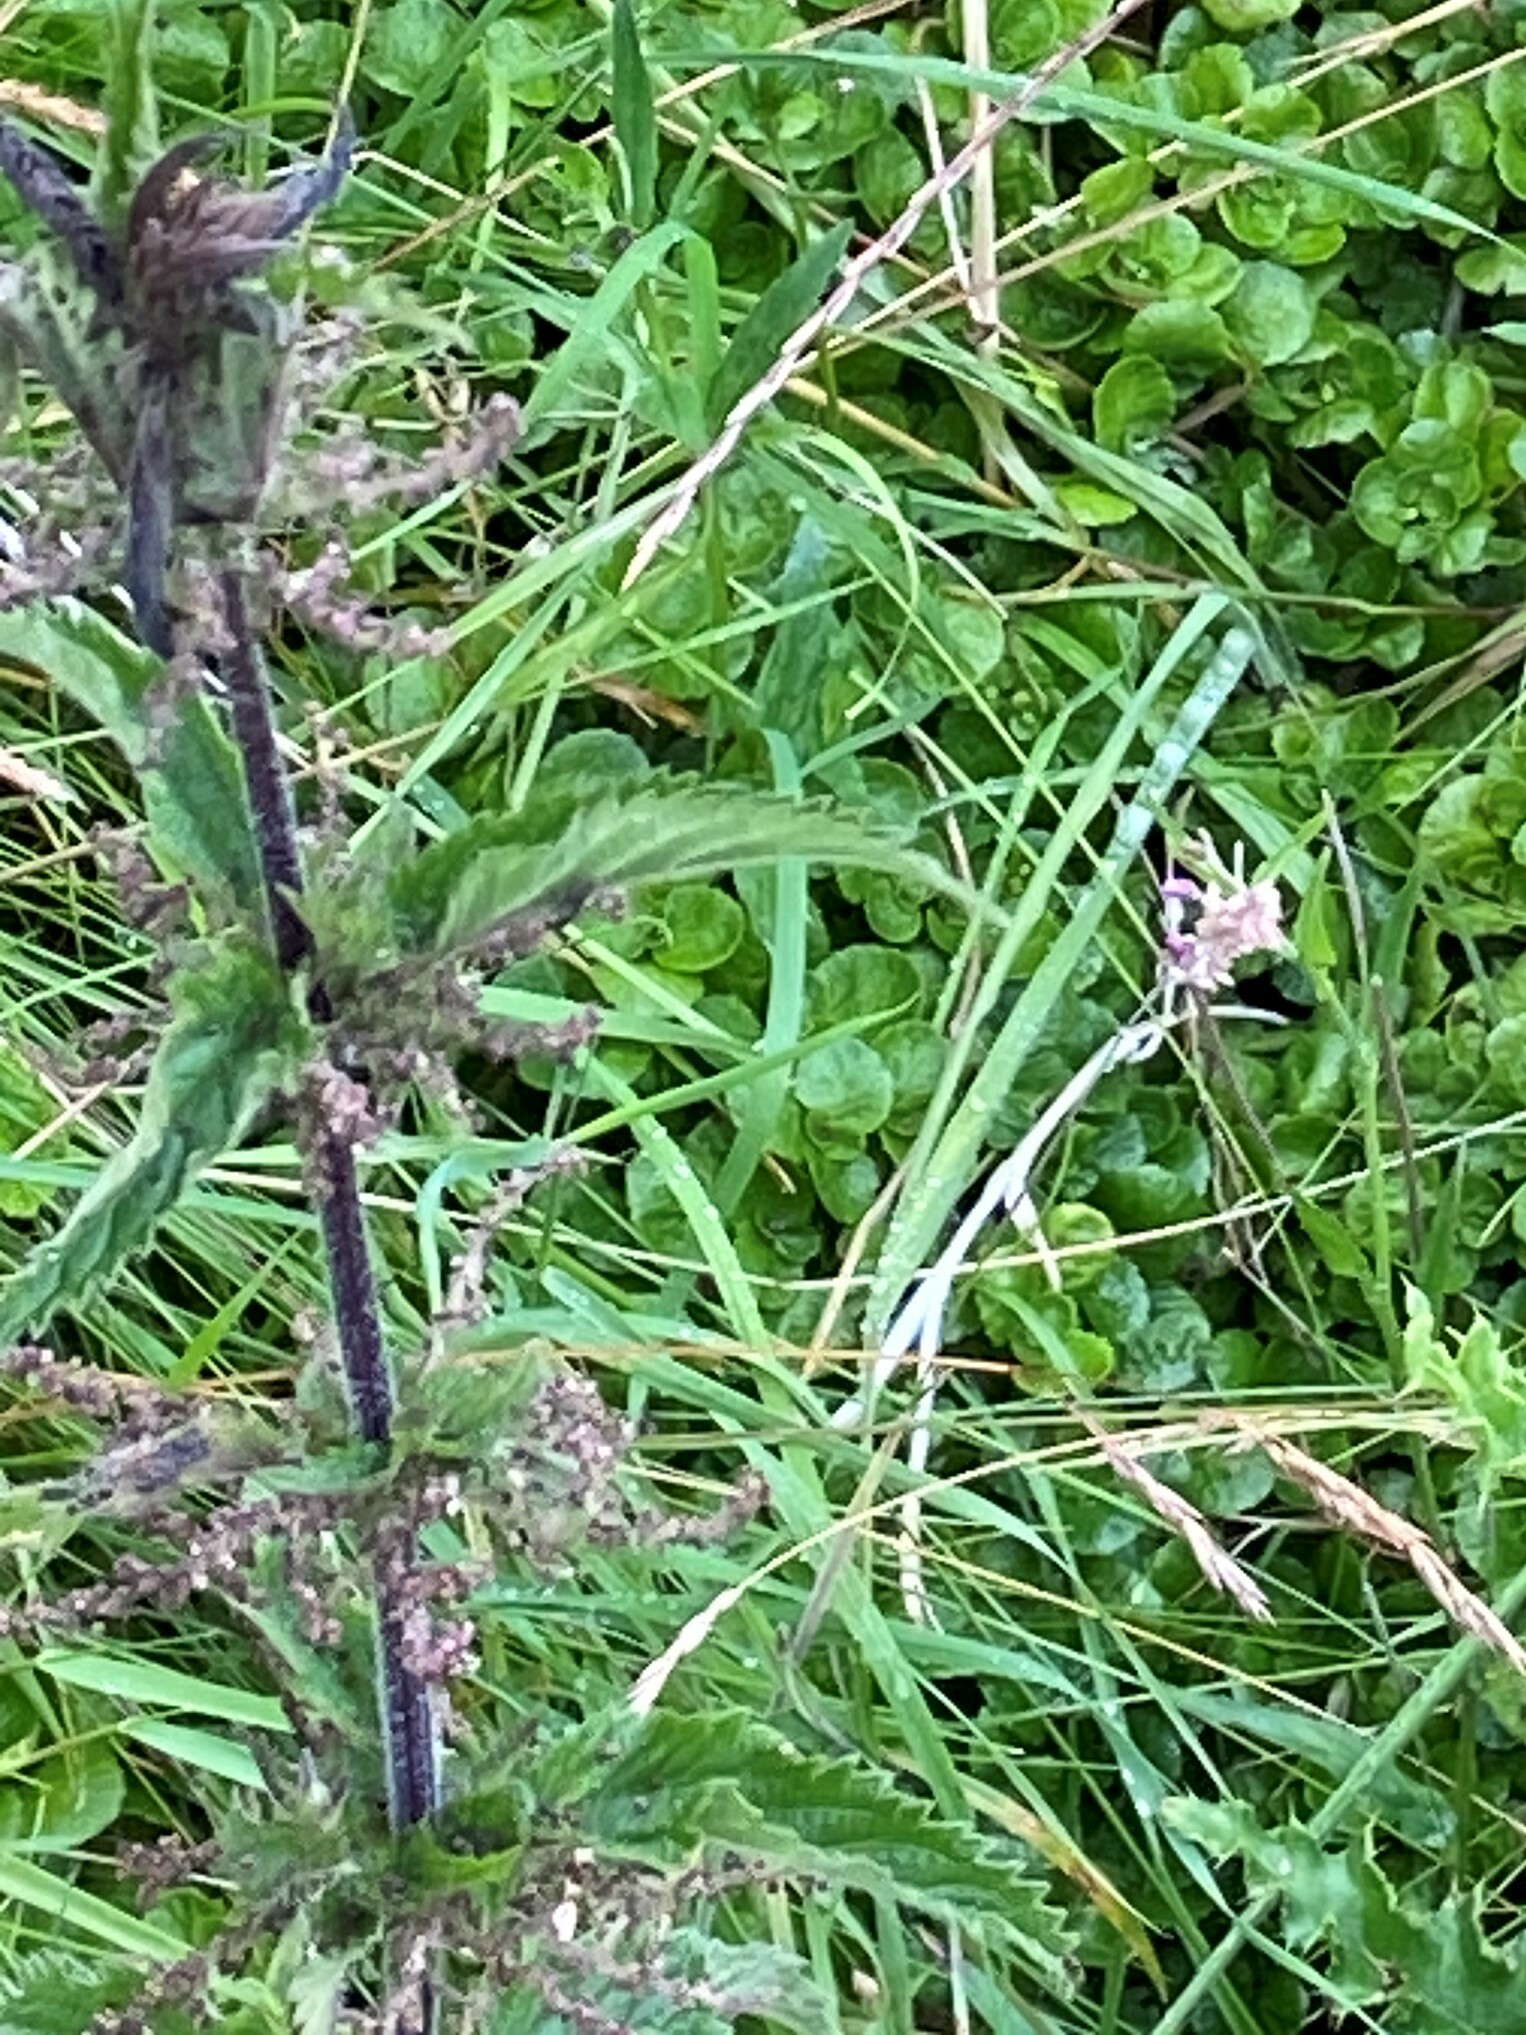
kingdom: Plantae
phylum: Tracheophyta
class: Magnoliopsida
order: Rosales
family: Urticaceae
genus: Urtica
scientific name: Urtica dioica
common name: Common nettle
